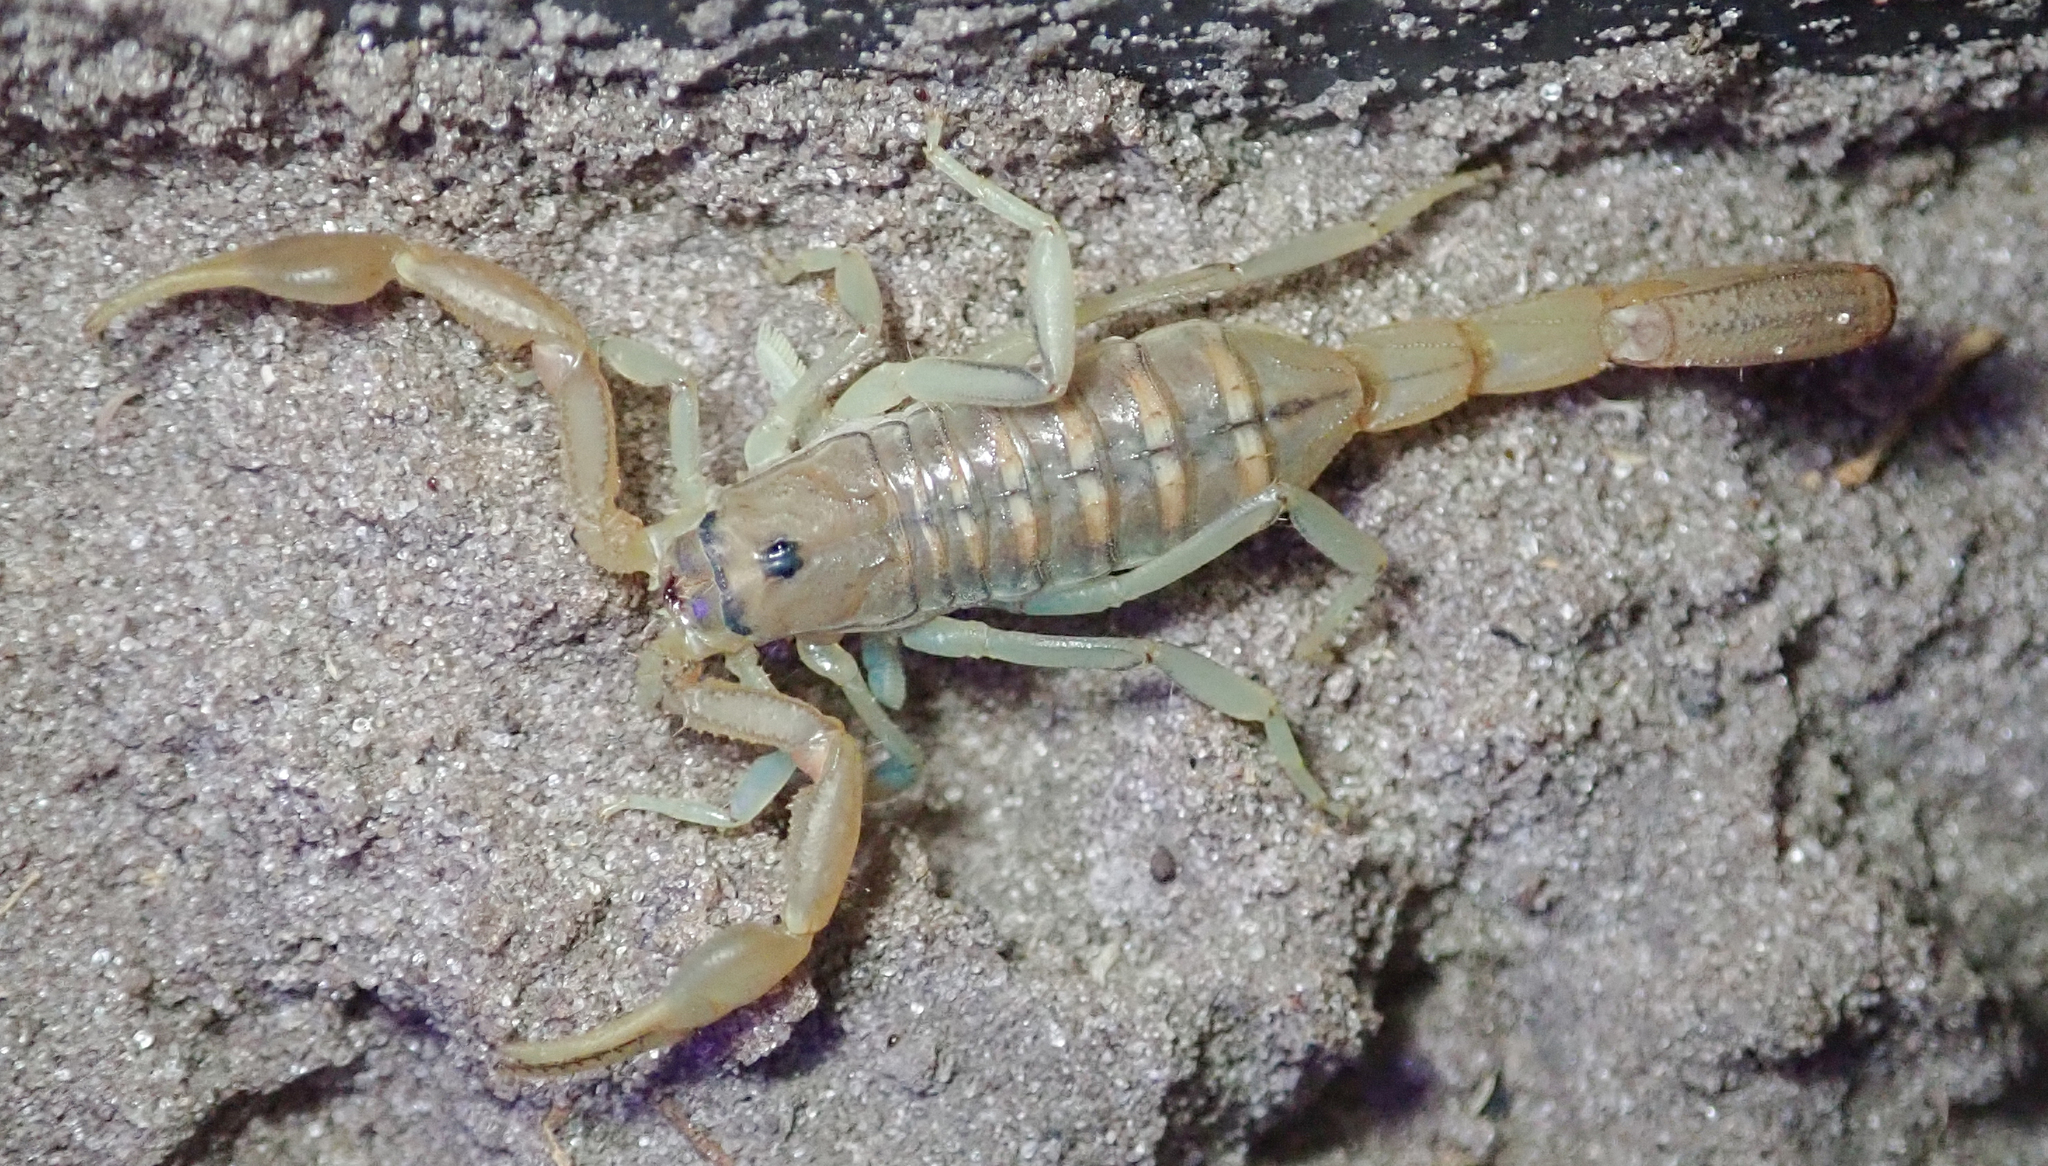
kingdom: Animalia
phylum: Arthropoda
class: Arachnida
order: Scorpiones
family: Buthidae
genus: Uroplectes
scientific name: Uroplectes planimanus
